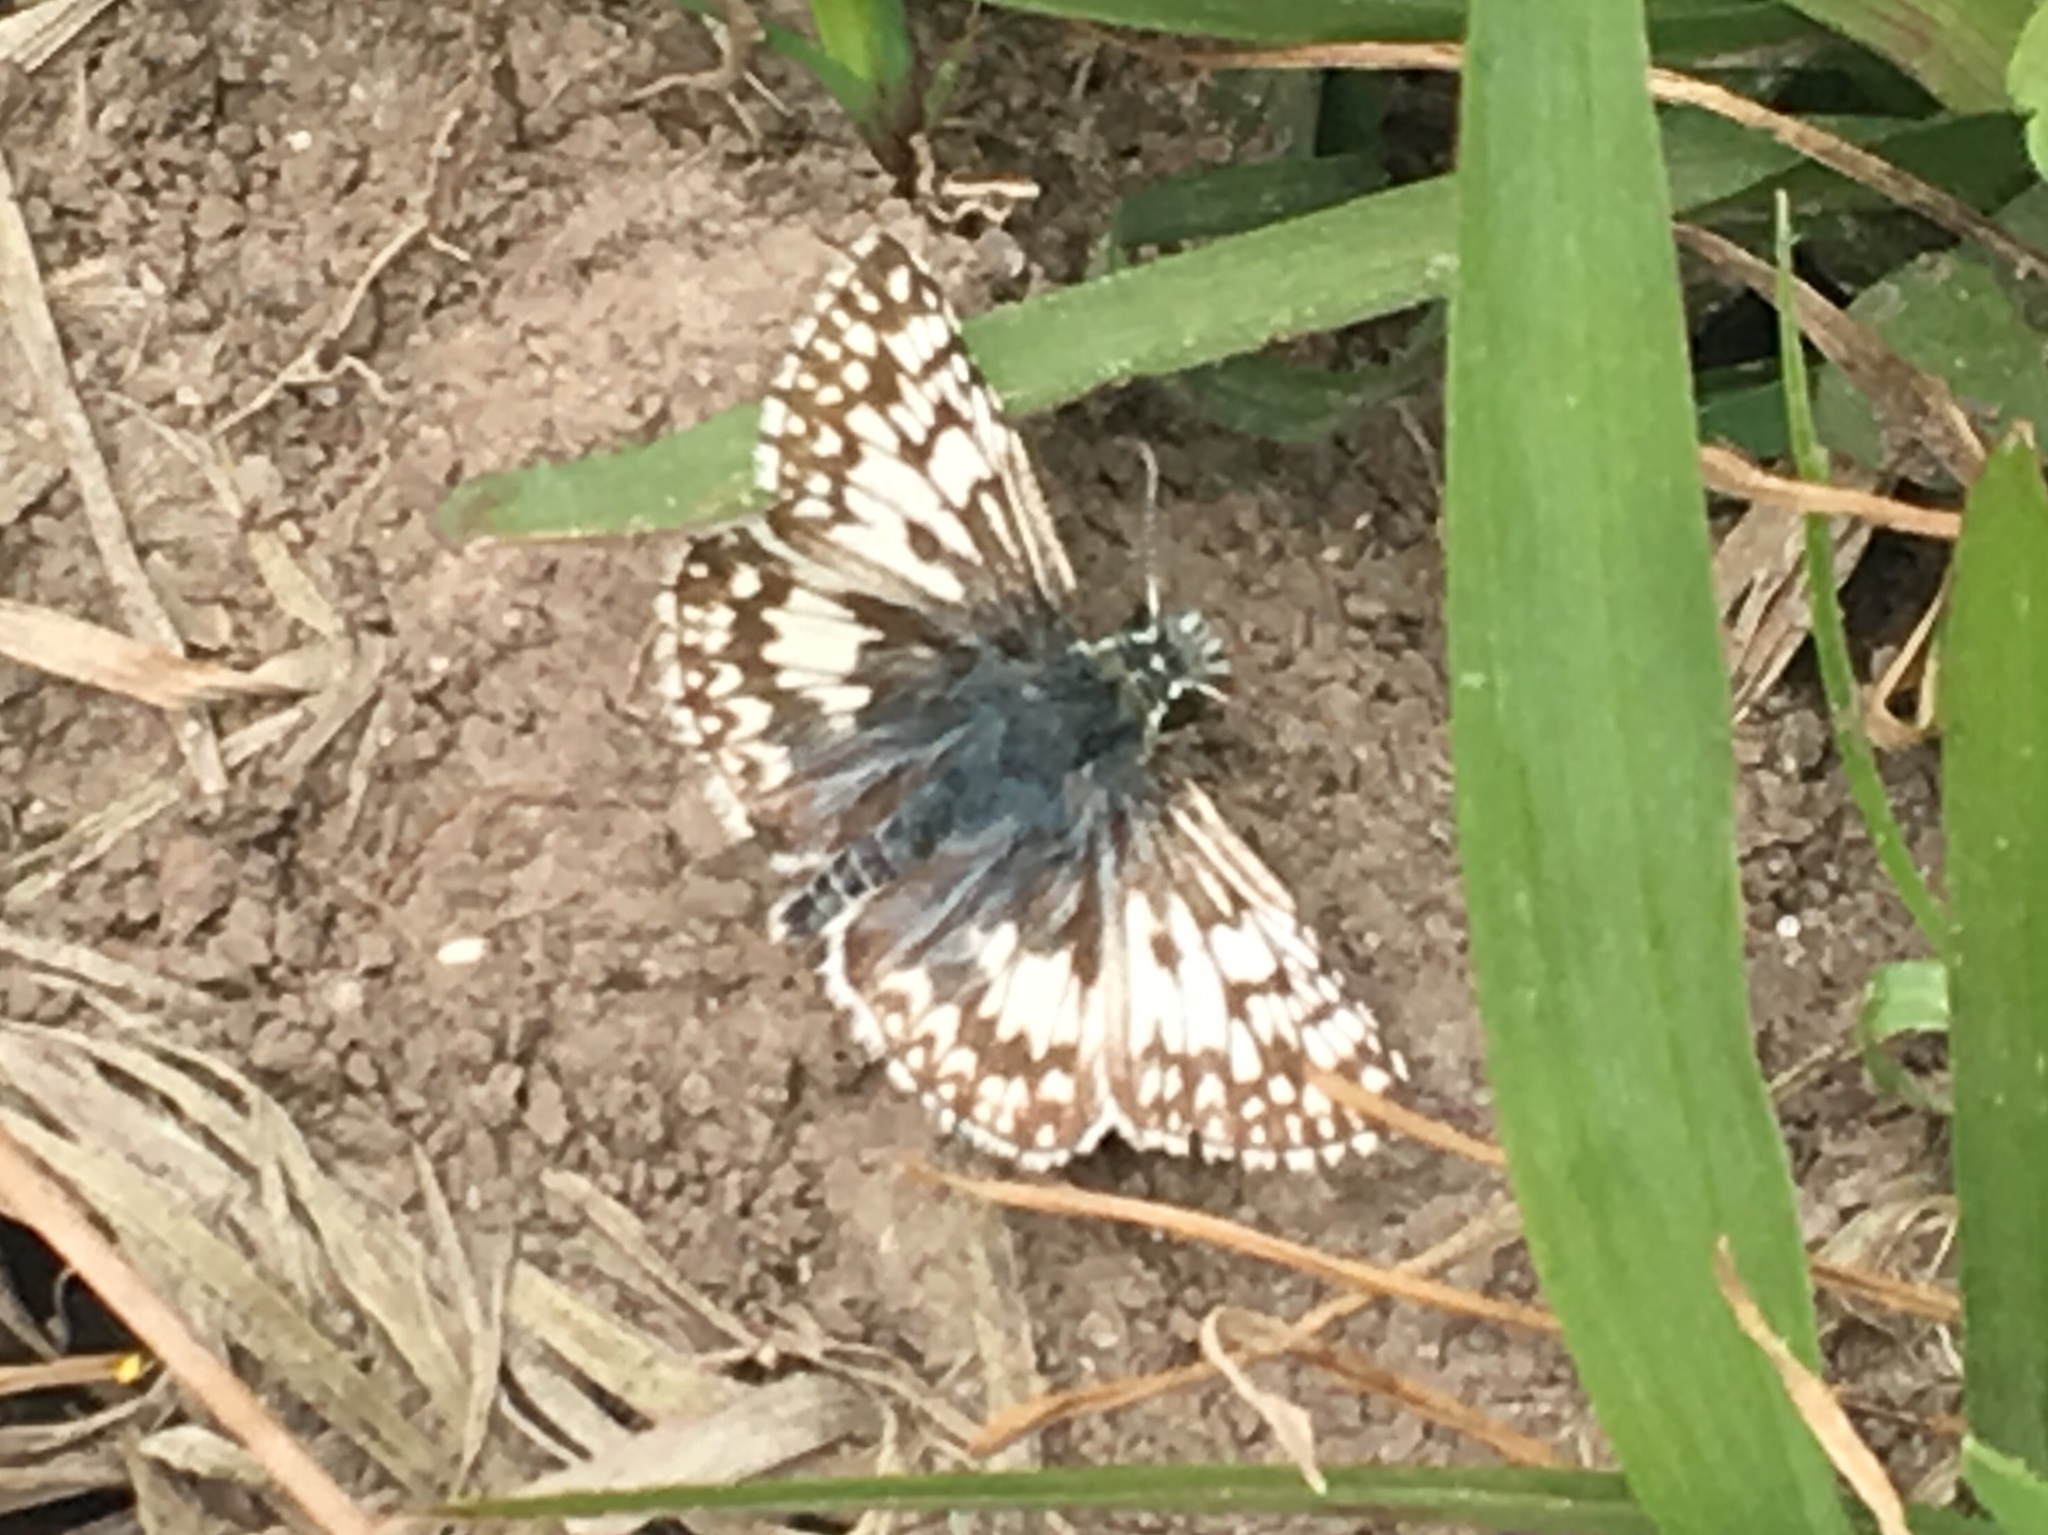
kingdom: Animalia
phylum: Arthropoda
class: Insecta
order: Lepidoptera
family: Hesperiidae
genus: Burnsius
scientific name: Burnsius
